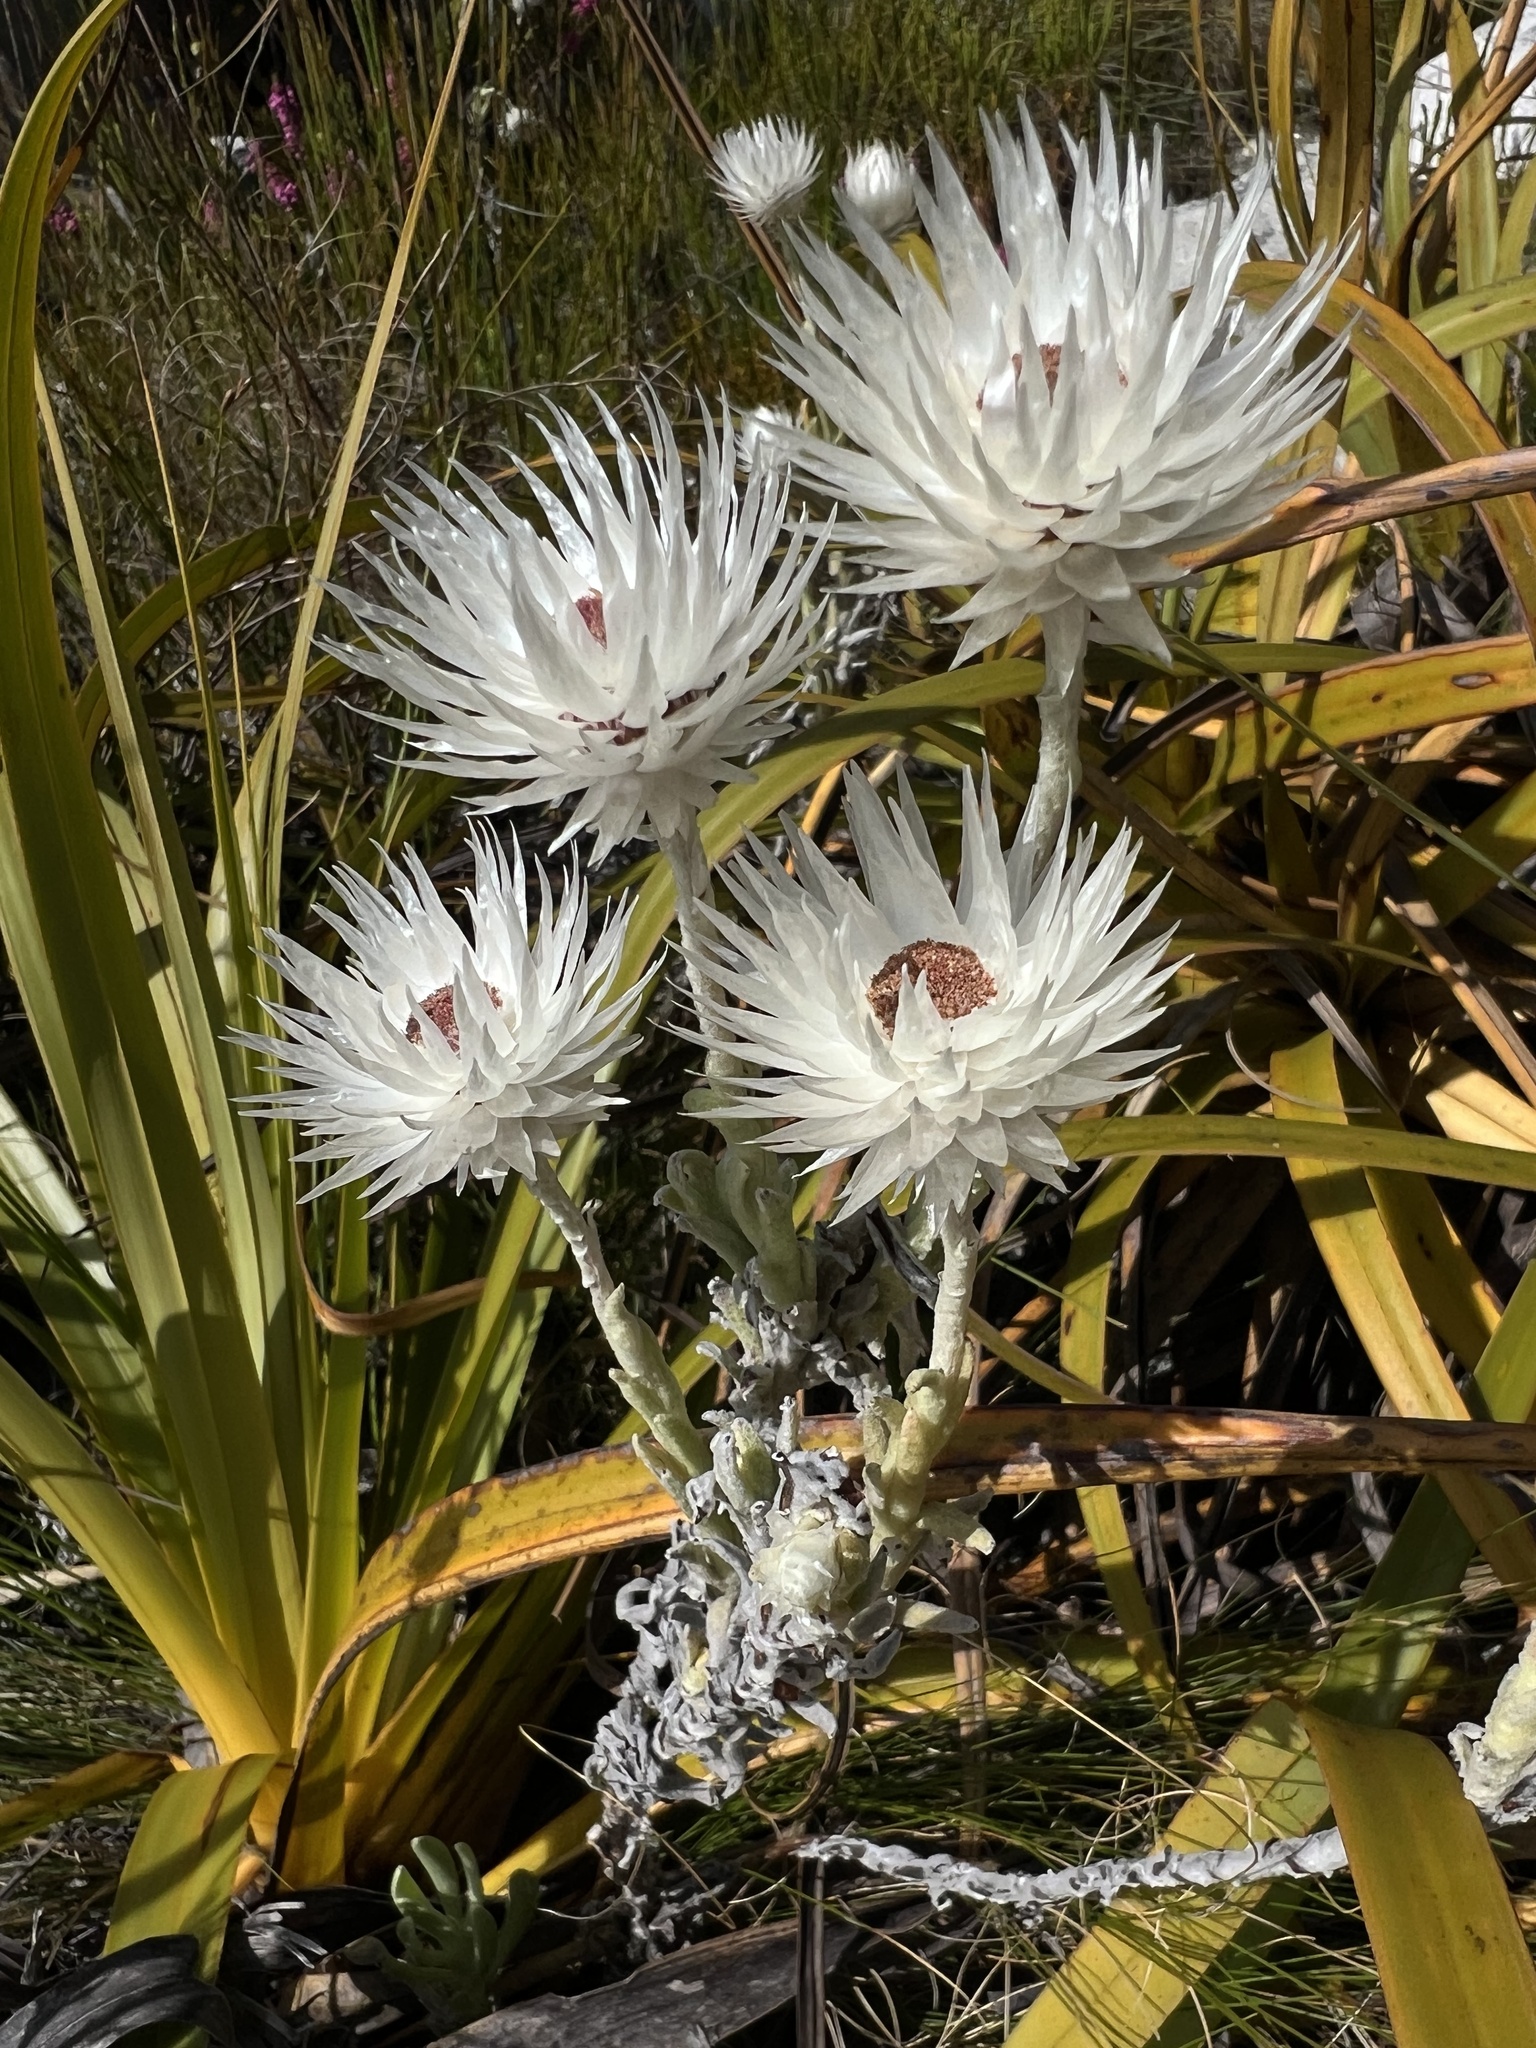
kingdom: Plantae
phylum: Tracheophyta
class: Magnoliopsida
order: Asterales
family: Asteraceae
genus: Syncarpha
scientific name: Syncarpha vestita
